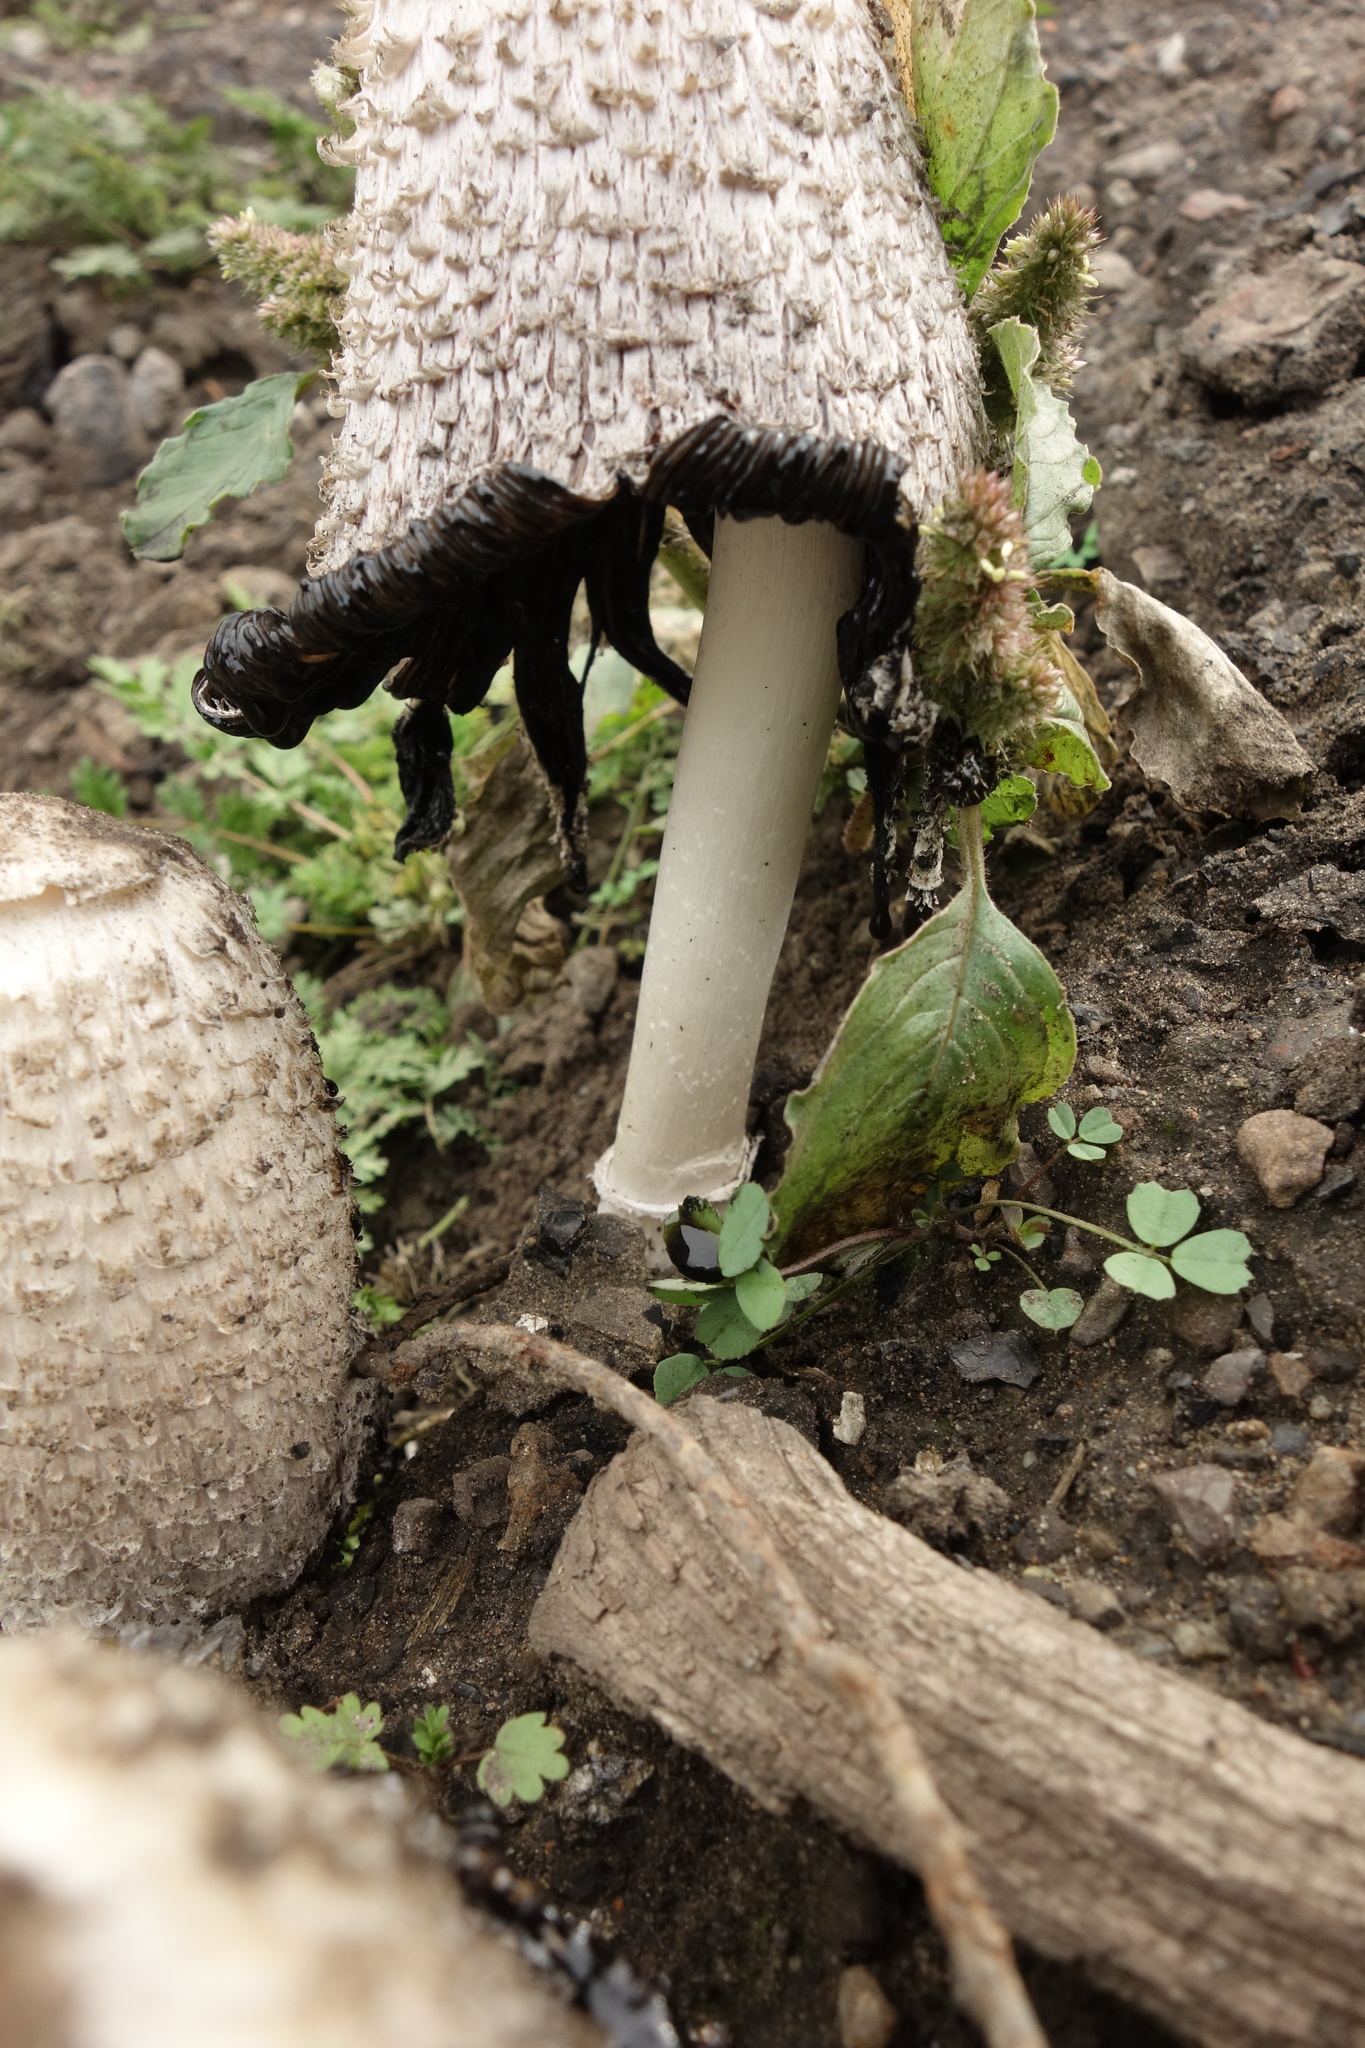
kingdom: Fungi
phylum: Basidiomycota
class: Agaricomycetes
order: Agaricales
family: Agaricaceae
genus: Coprinus
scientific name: Coprinus comatus
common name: Lawyer's wig
